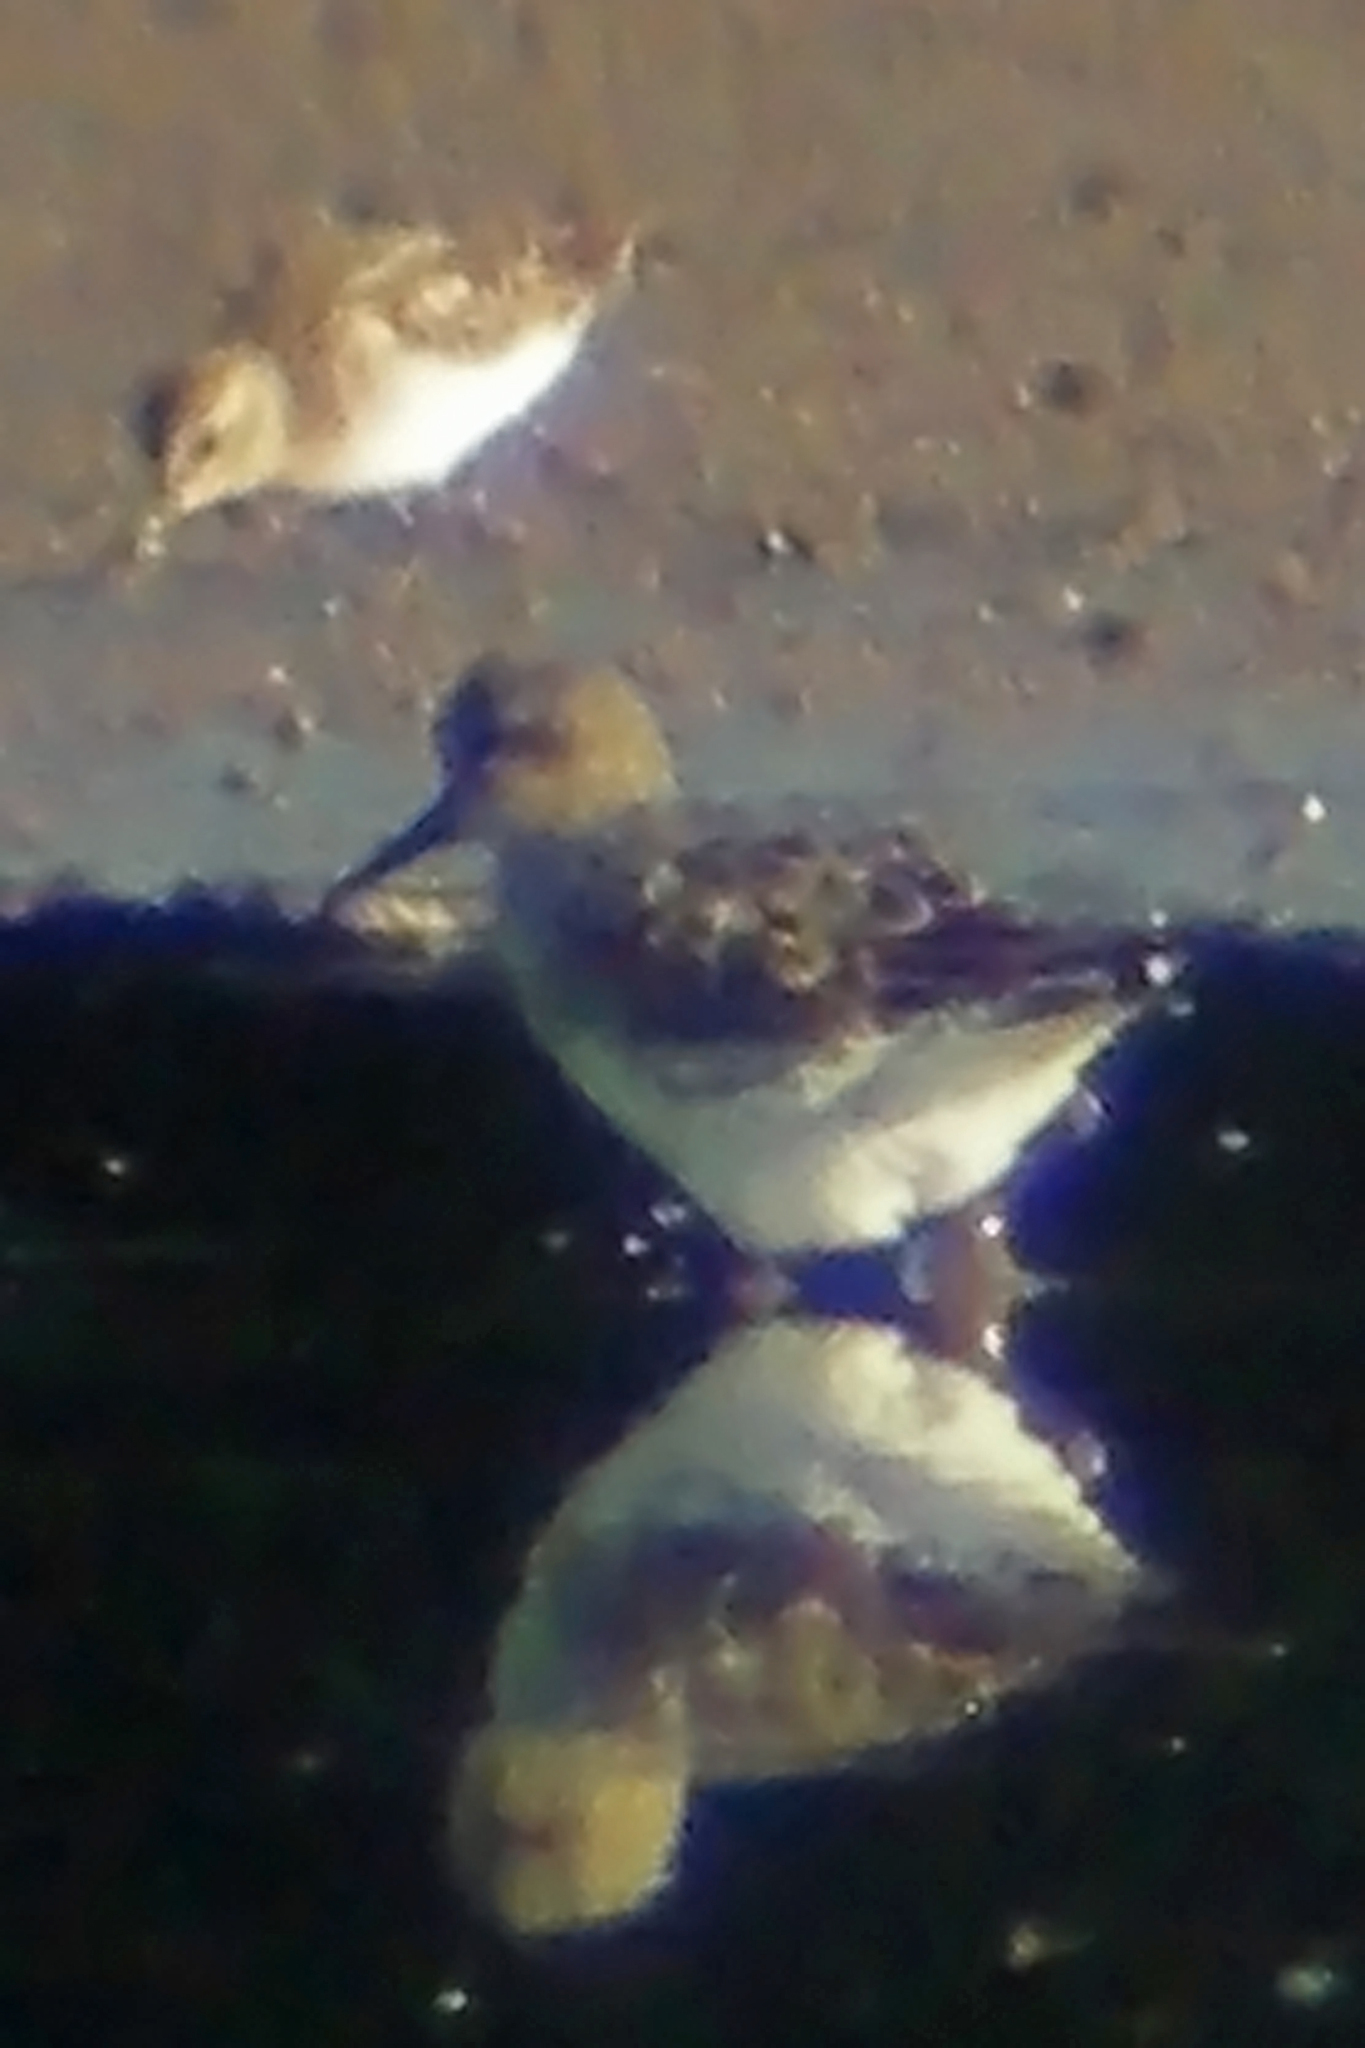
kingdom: Animalia
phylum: Chordata
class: Aves
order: Charadriiformes
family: Scolopacidae
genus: Calidris
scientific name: Calidris fuscicollis
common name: White-rumped sandpiper
